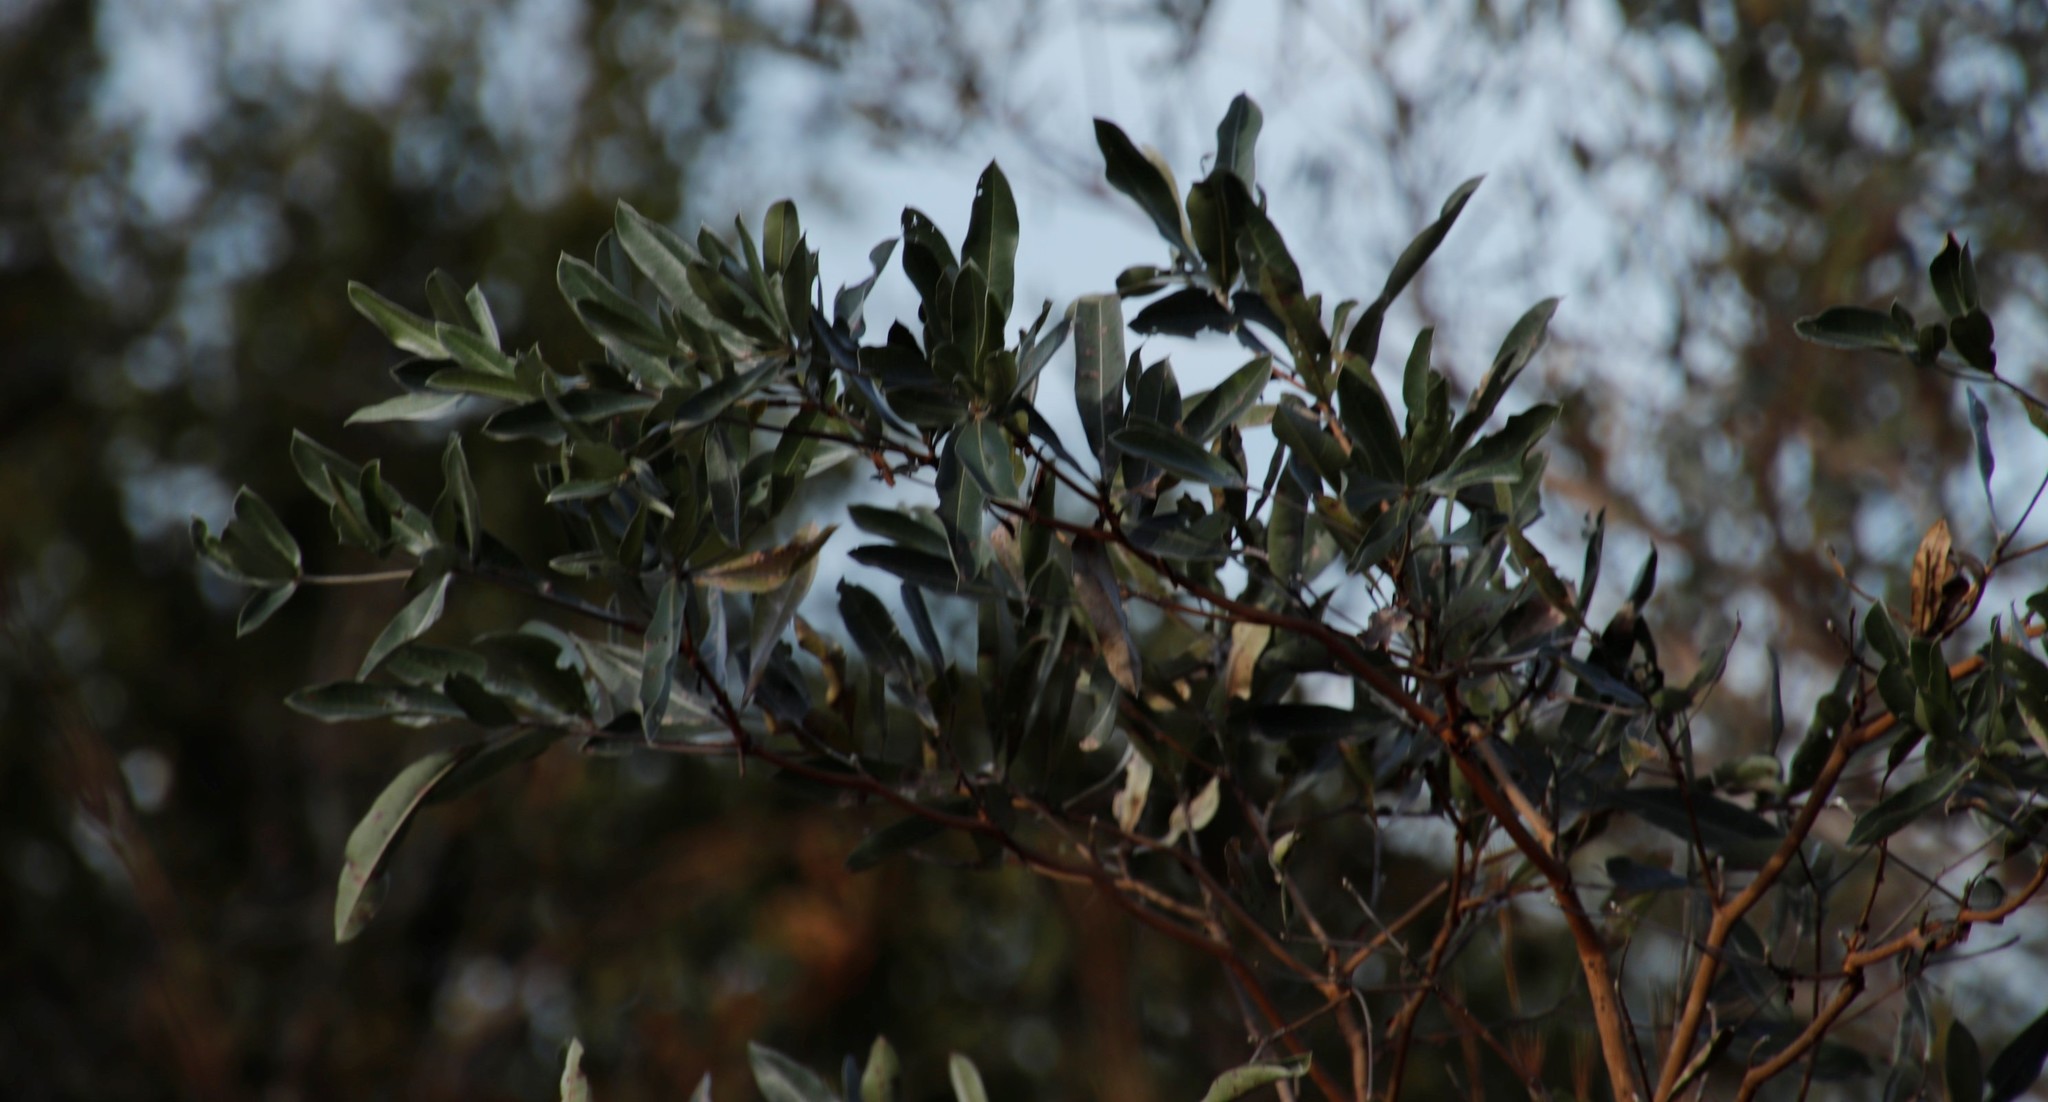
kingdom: Plantae
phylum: Tracheophyta
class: Magnoliopsida
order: Myrtales
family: Combretaceae
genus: Terminalia
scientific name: Terminalia sericea
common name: Clusterleaf
